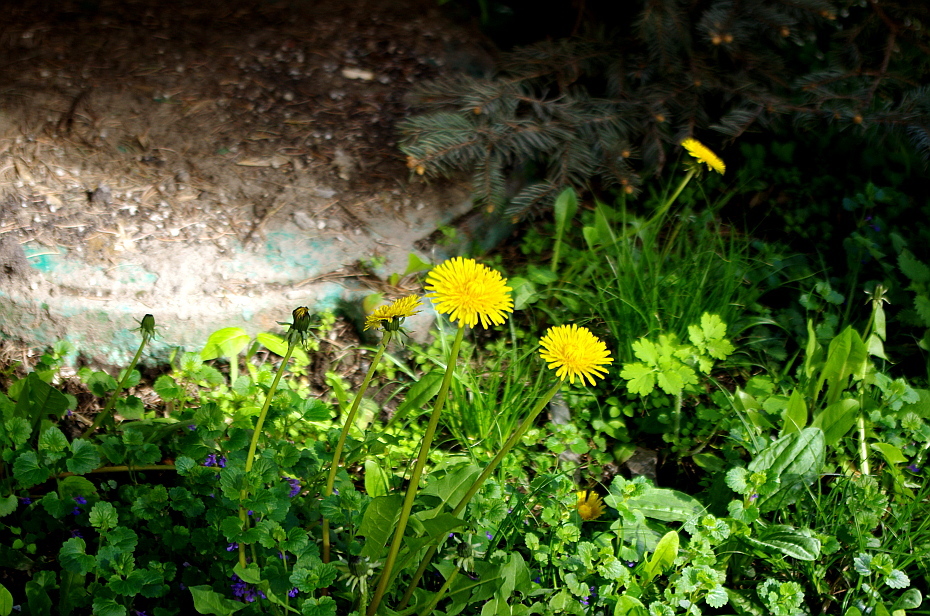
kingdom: Plantae
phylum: Tracheophyta
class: Magnoliopsida
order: Asterales
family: Asteraceae
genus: Taraxacum
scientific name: Taraxacum officinale
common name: Common dandelion
